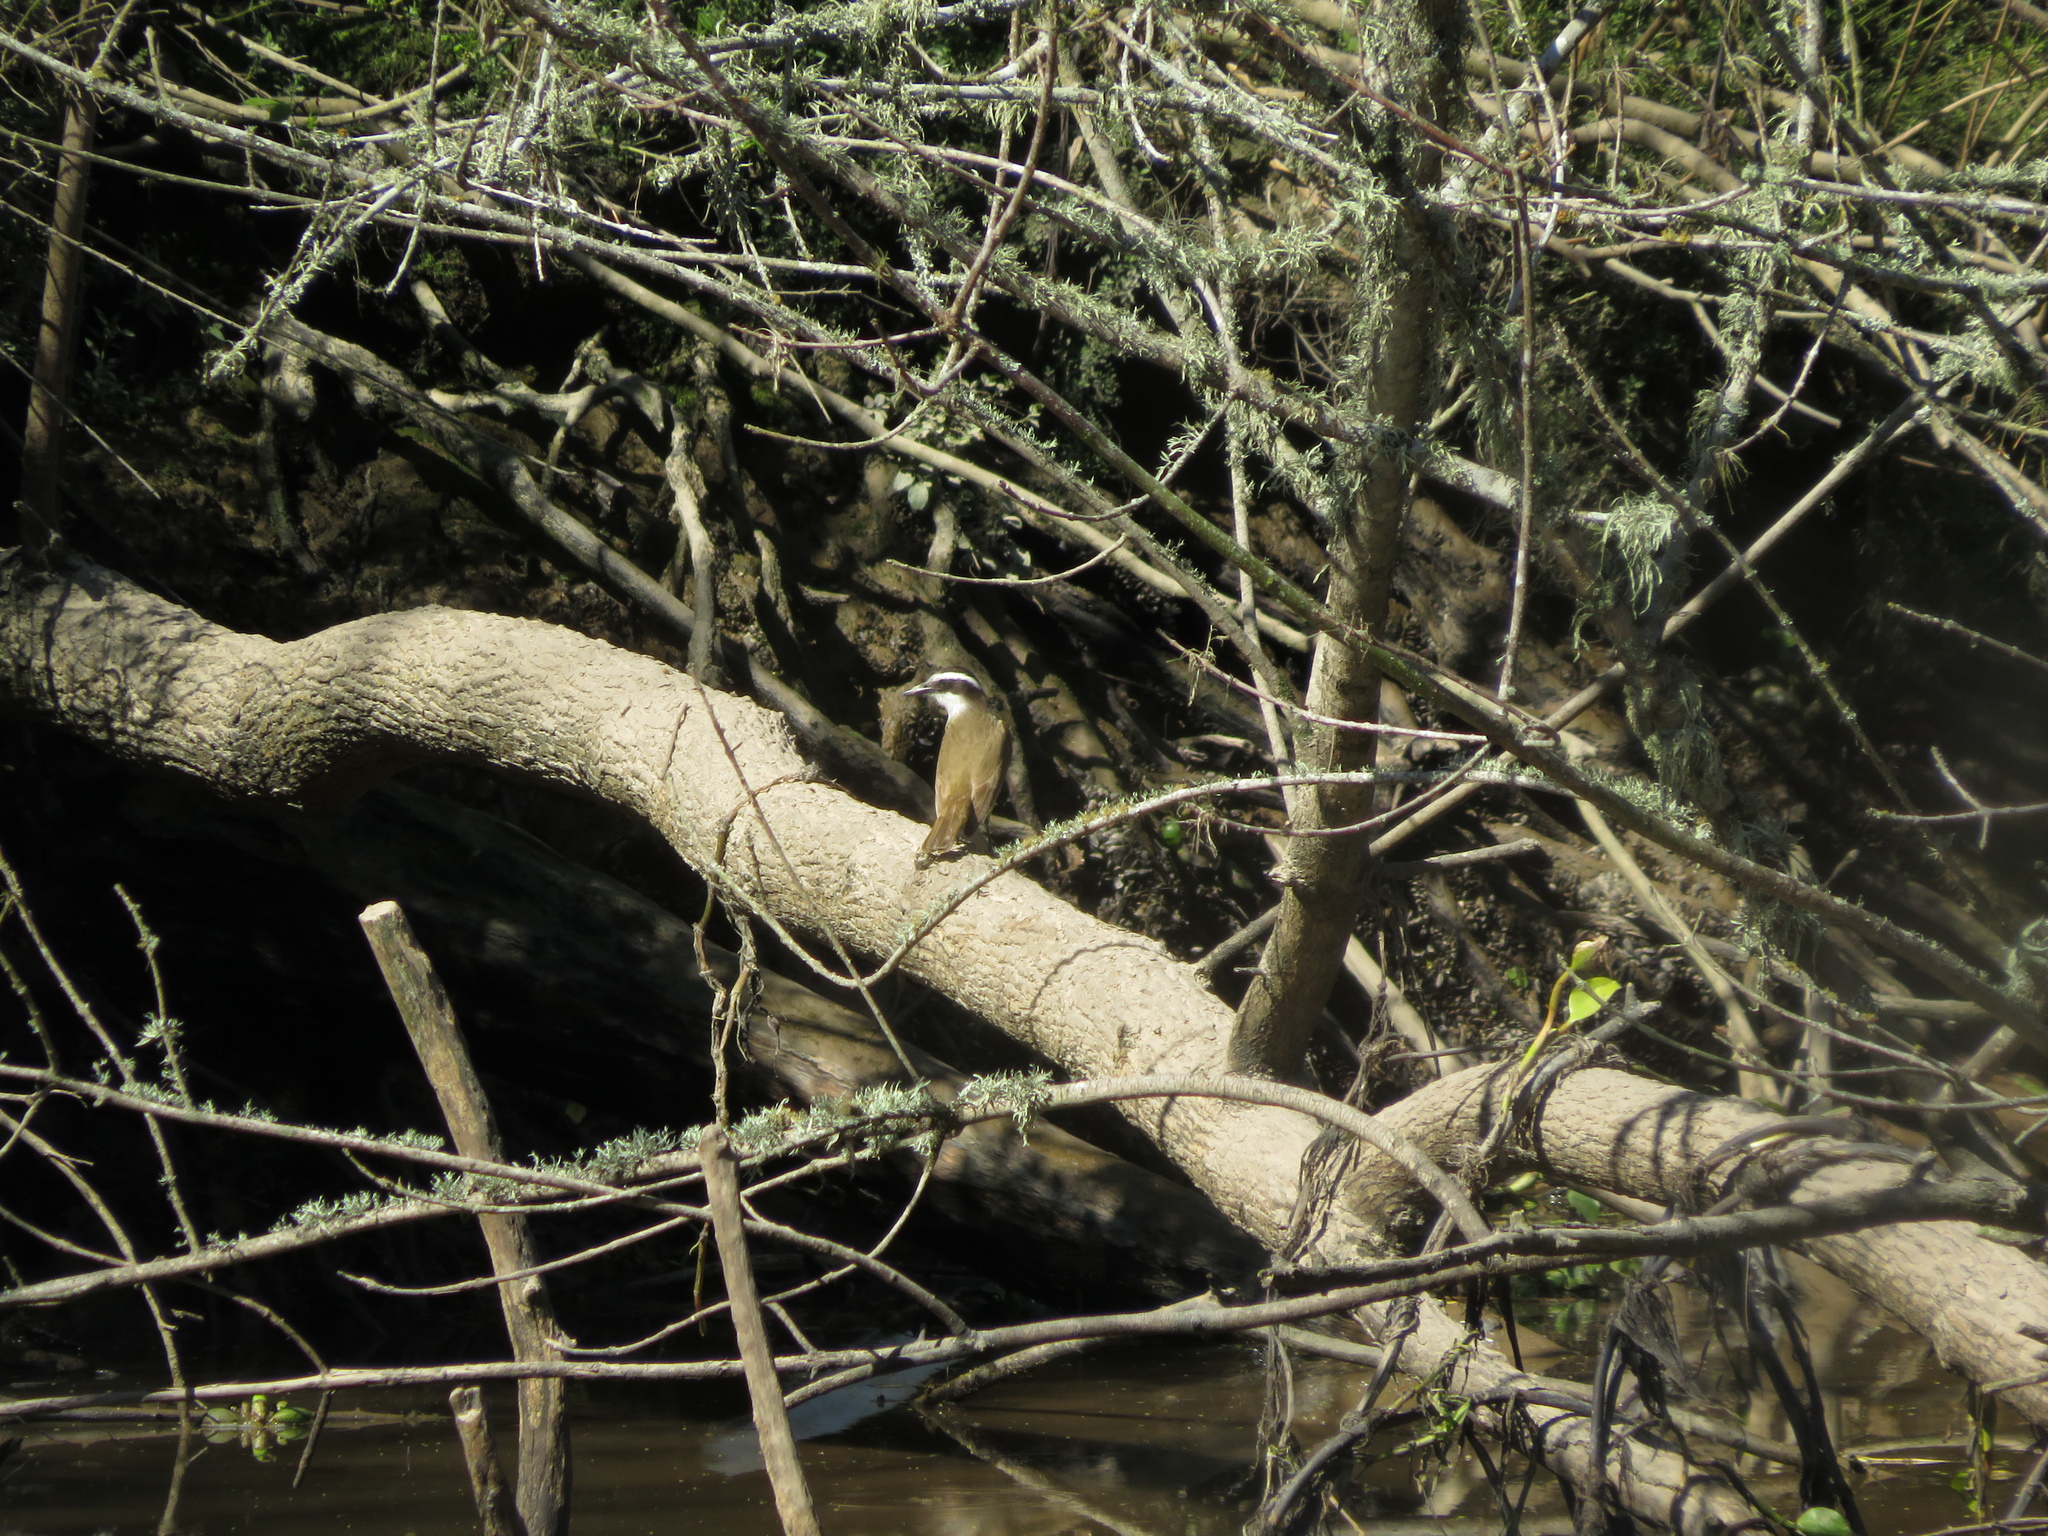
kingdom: Animalia
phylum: Chordata
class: Aves
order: Passeriformes
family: Tyrannidae
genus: Pitangus
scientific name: Pitangus sulphuratus
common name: Great kiskadee
